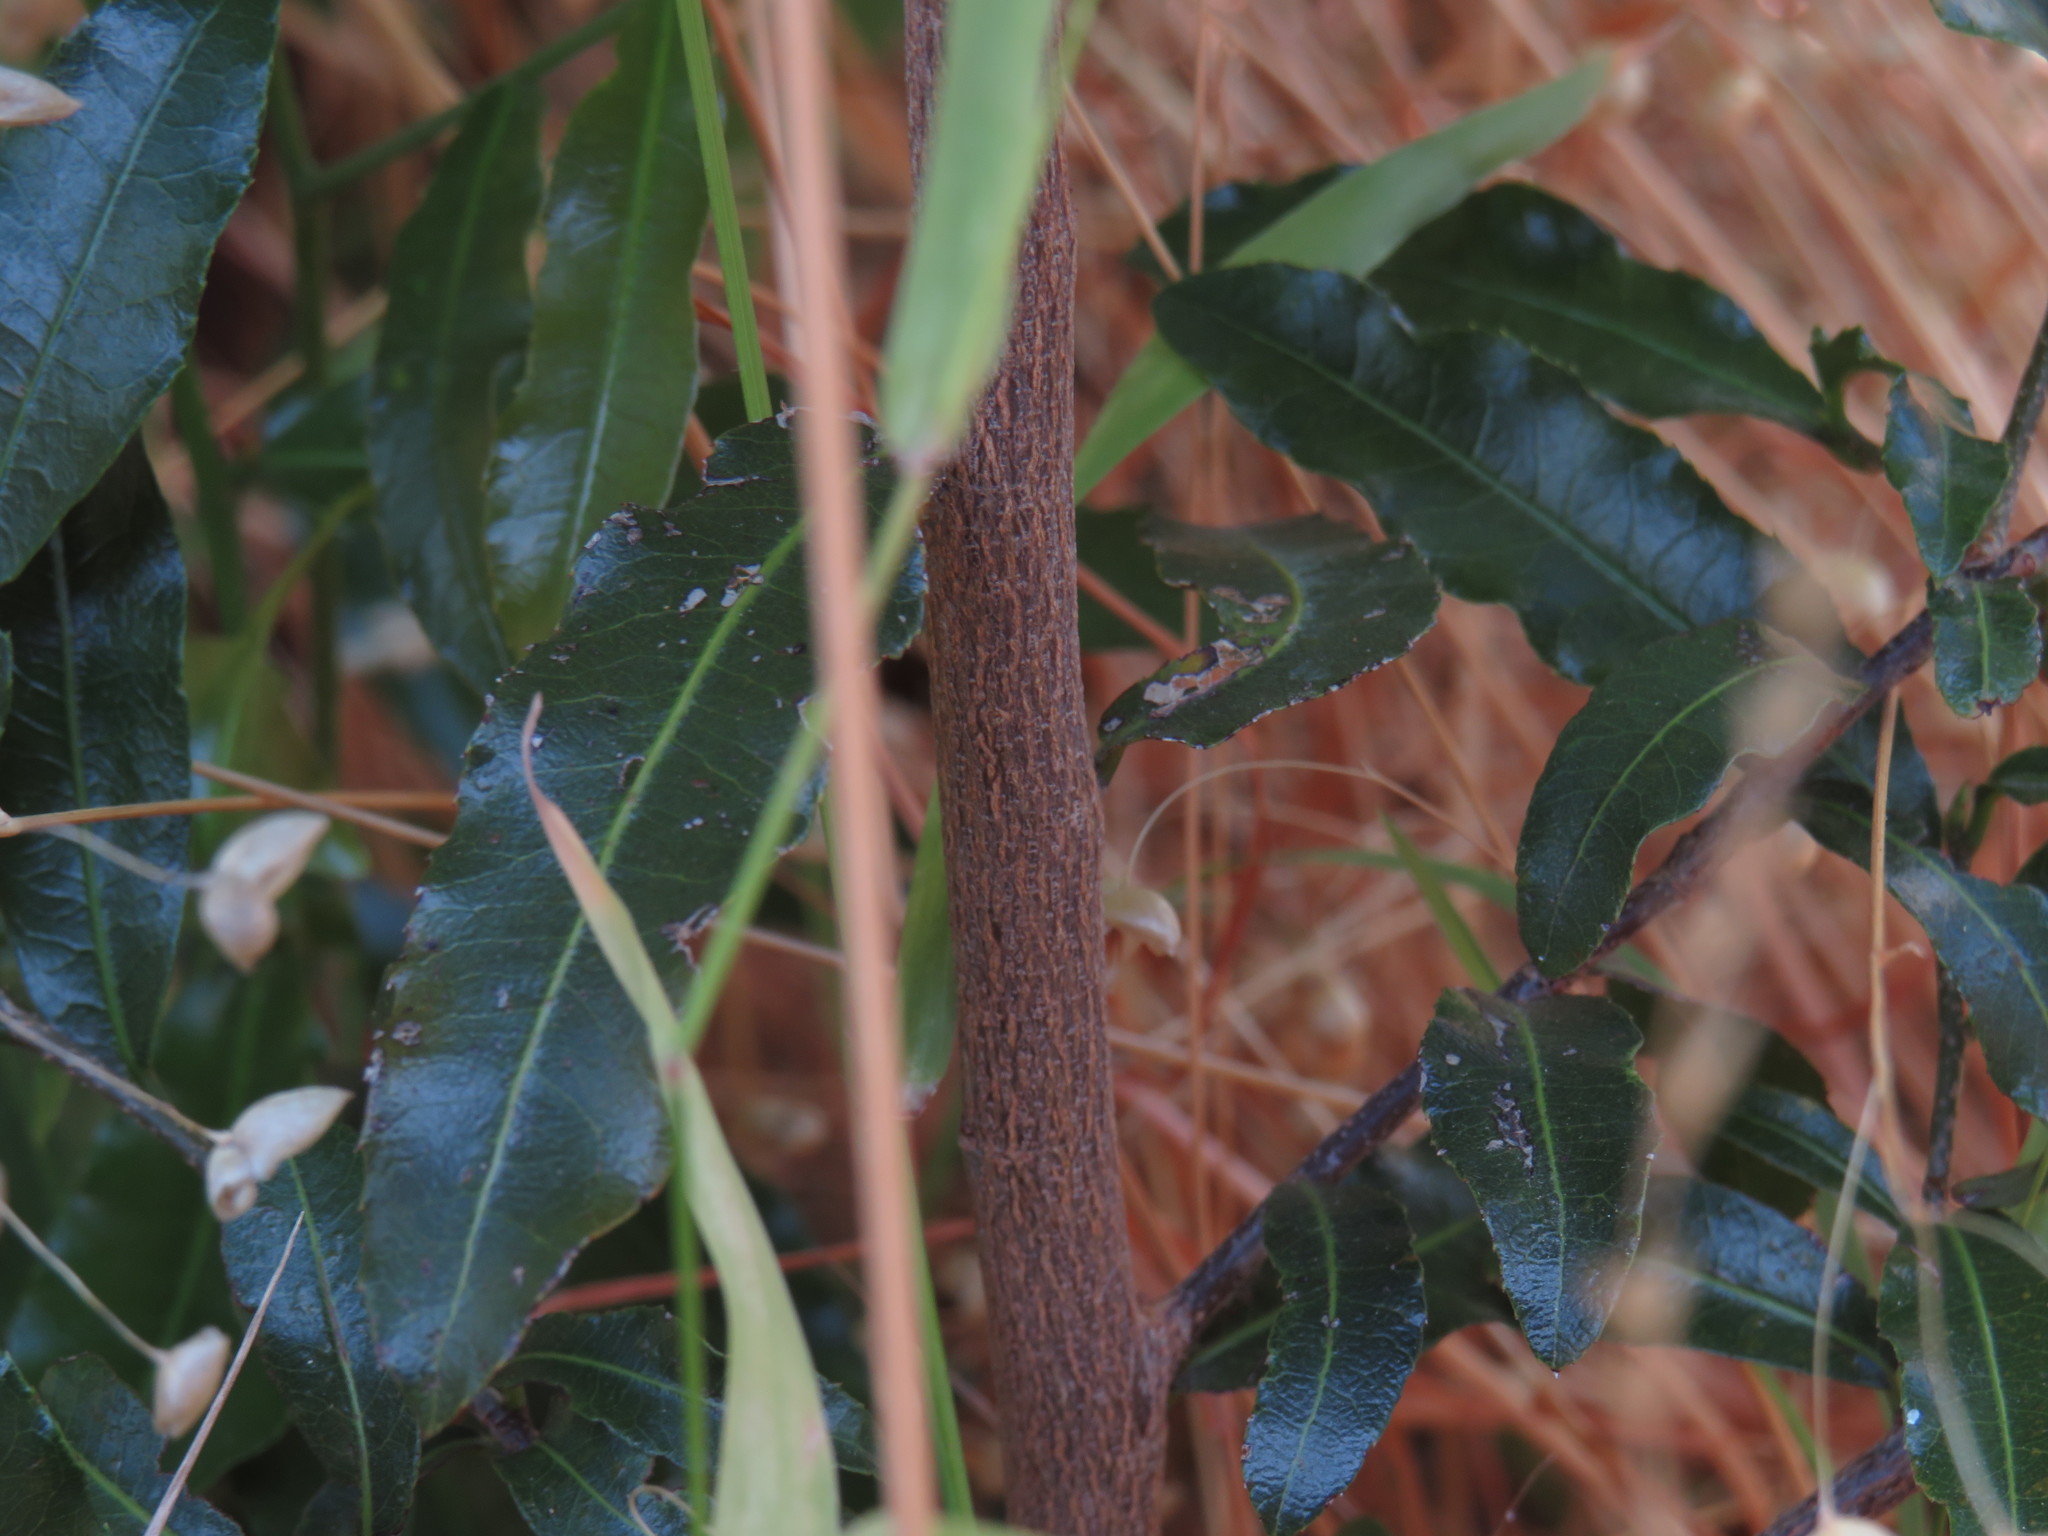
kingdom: Plantae
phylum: Tracheophyta
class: Magnoliopsida
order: Malpighiales
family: Ochnaceae
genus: Ochna
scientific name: Ochna serrulata
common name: Mickey mouse plant
